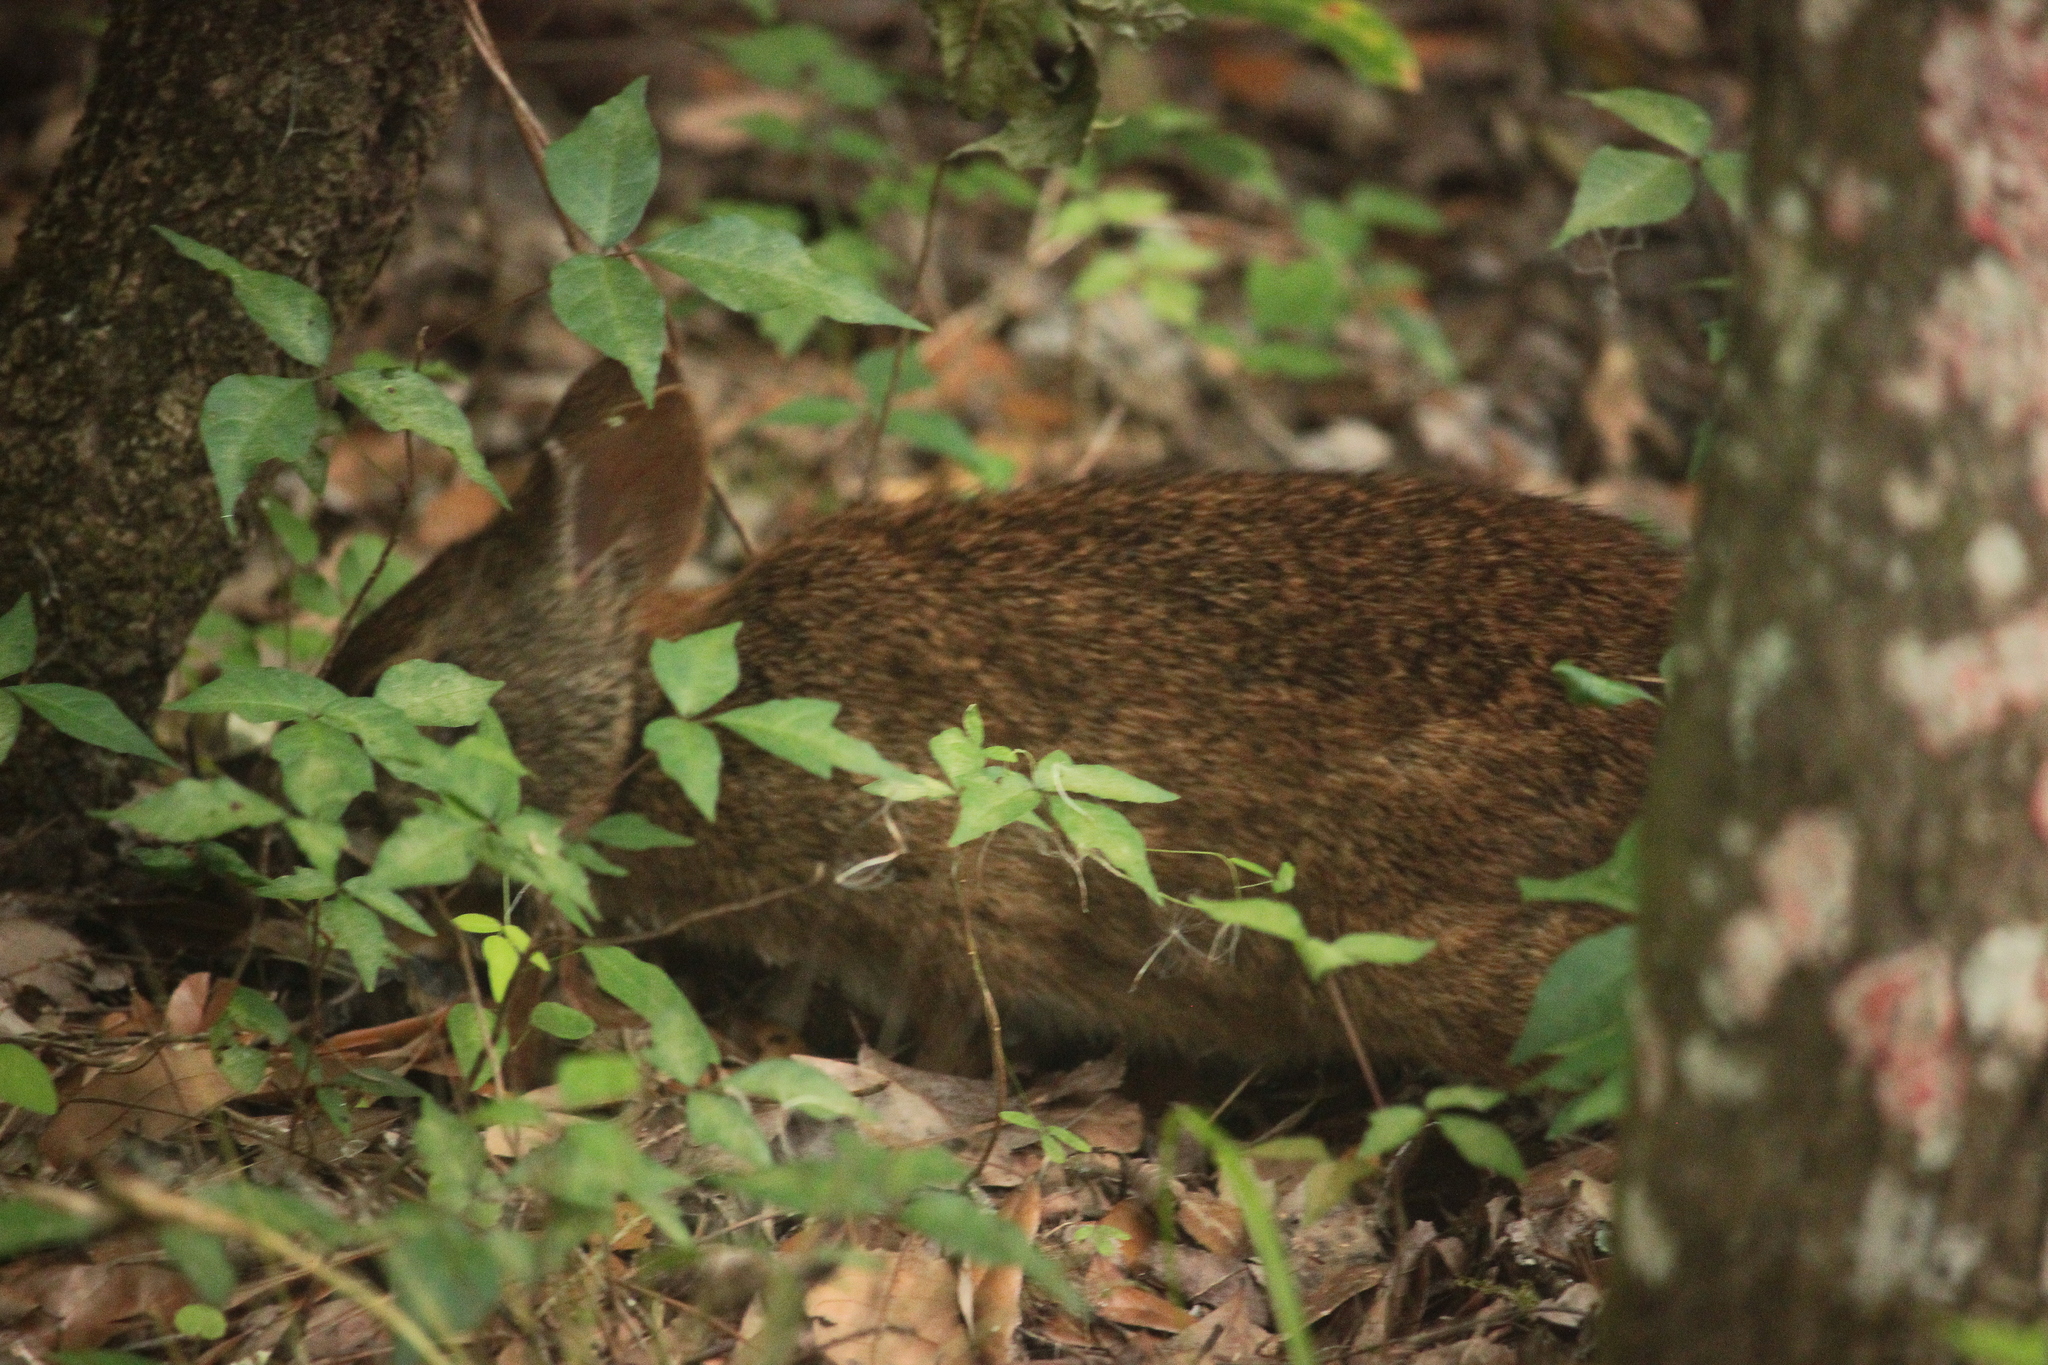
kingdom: Animalia
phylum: Chordata
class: Mammalia
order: Lagomorpha
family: Leporidae
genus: Sylvilagus
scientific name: Sylvilagus palustris
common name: Marsh rabbit
